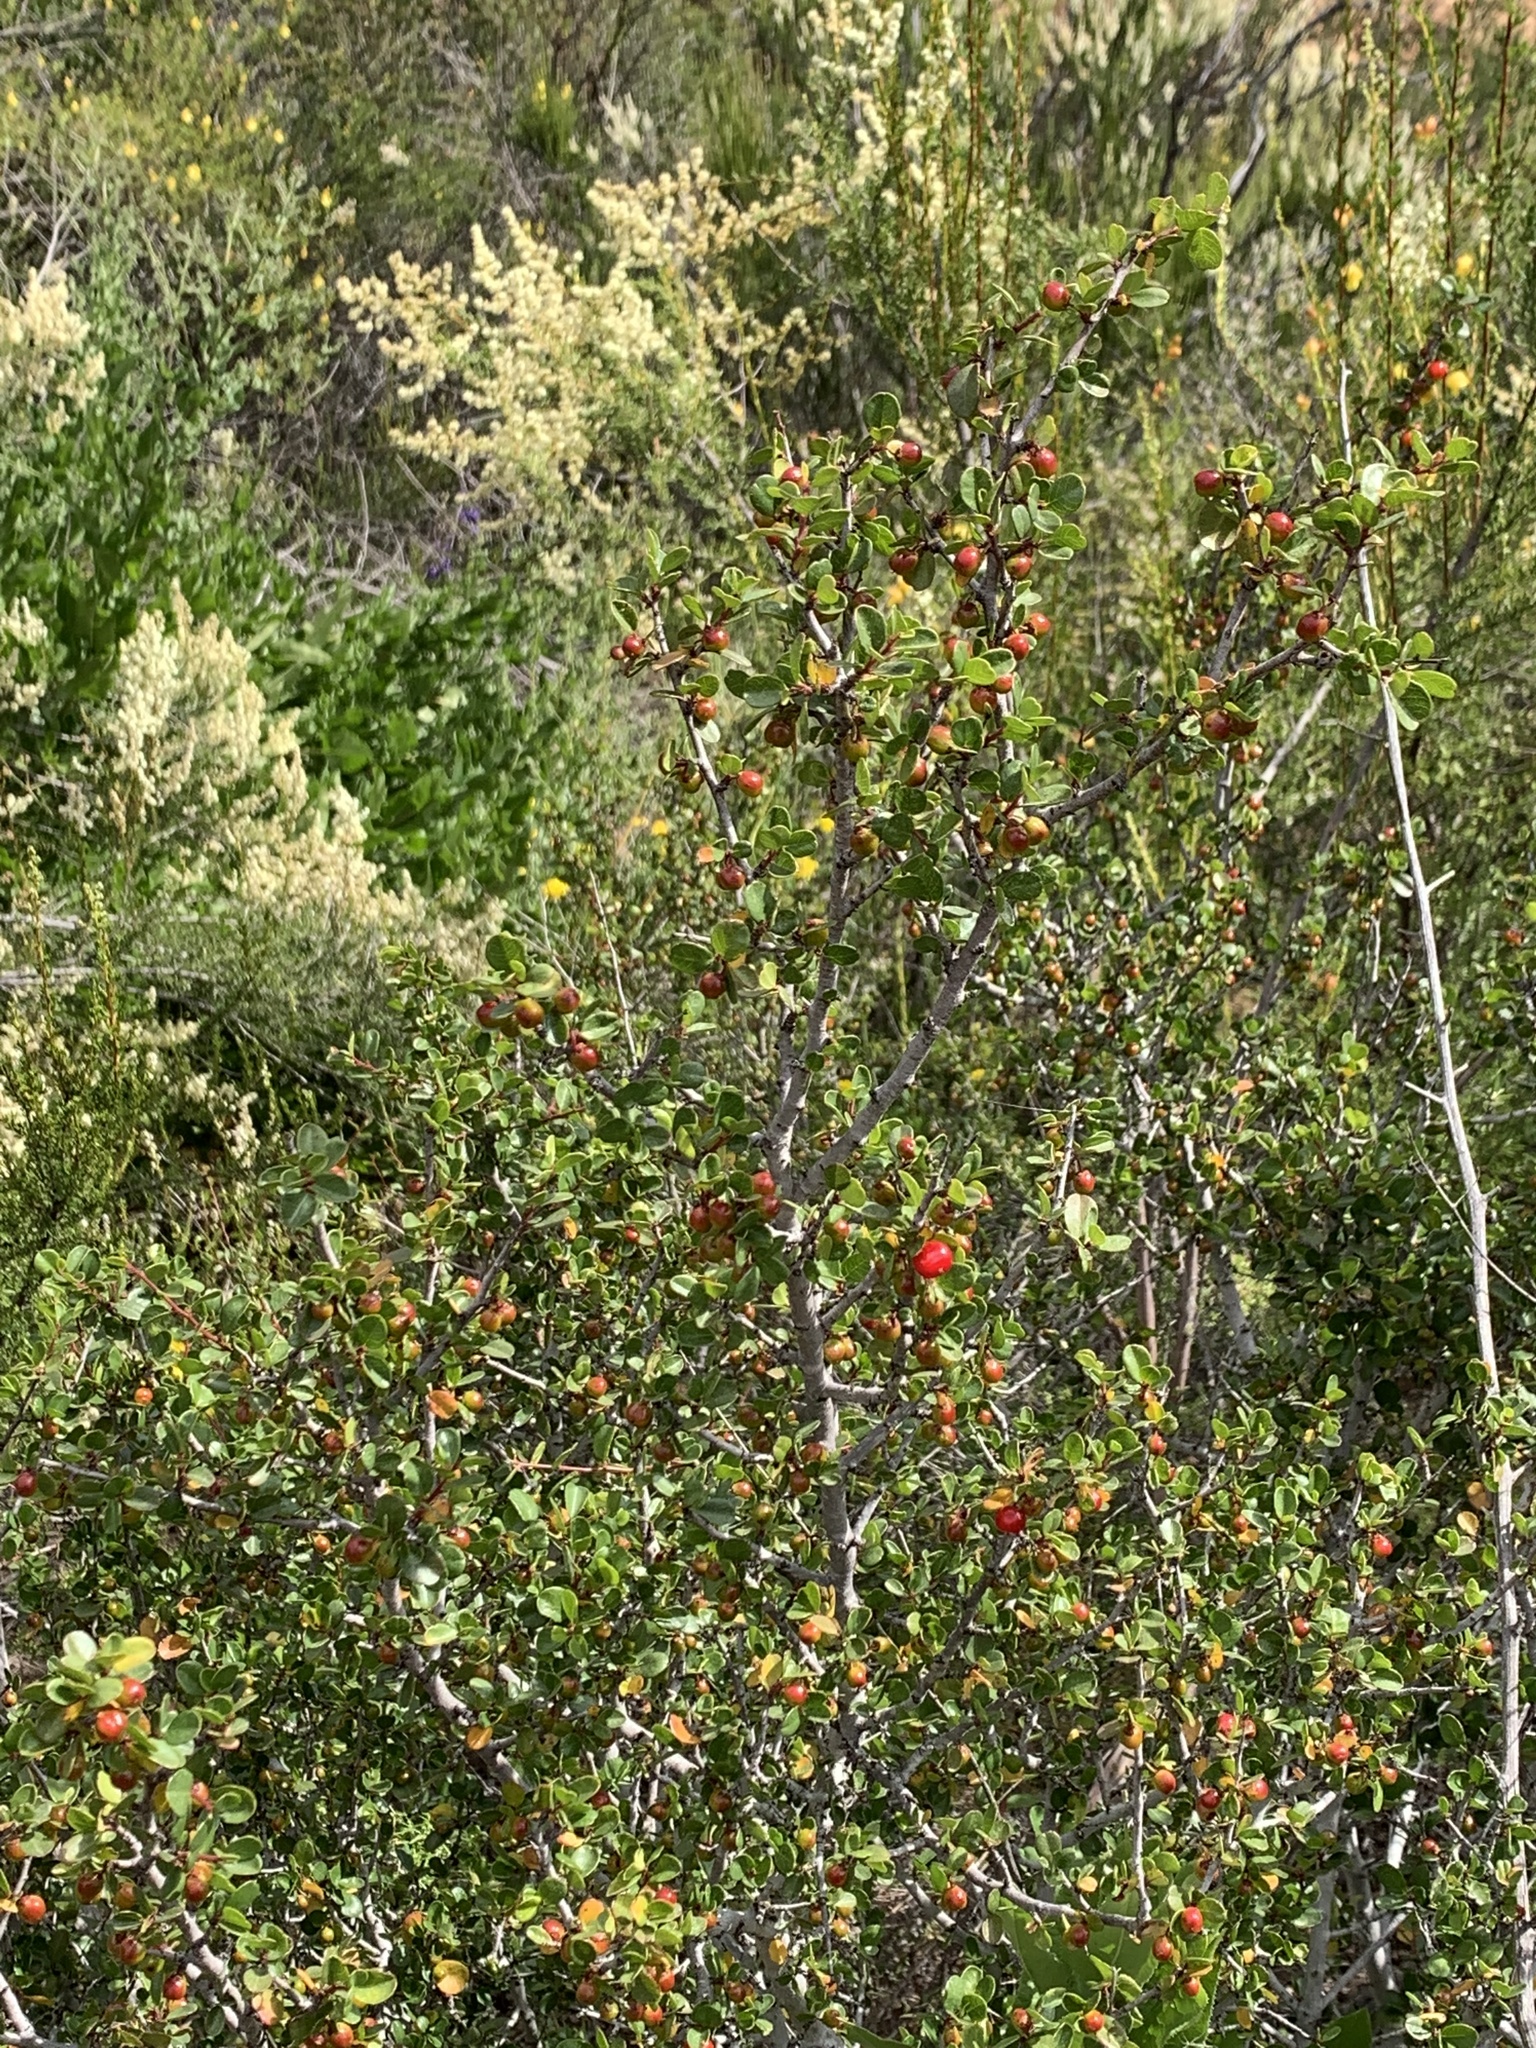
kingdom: Plantae
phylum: Tracheophyta
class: Magnoliopsida
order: Rosales
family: Rhamnaceae
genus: Endotropis
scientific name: Endotropis crocea
